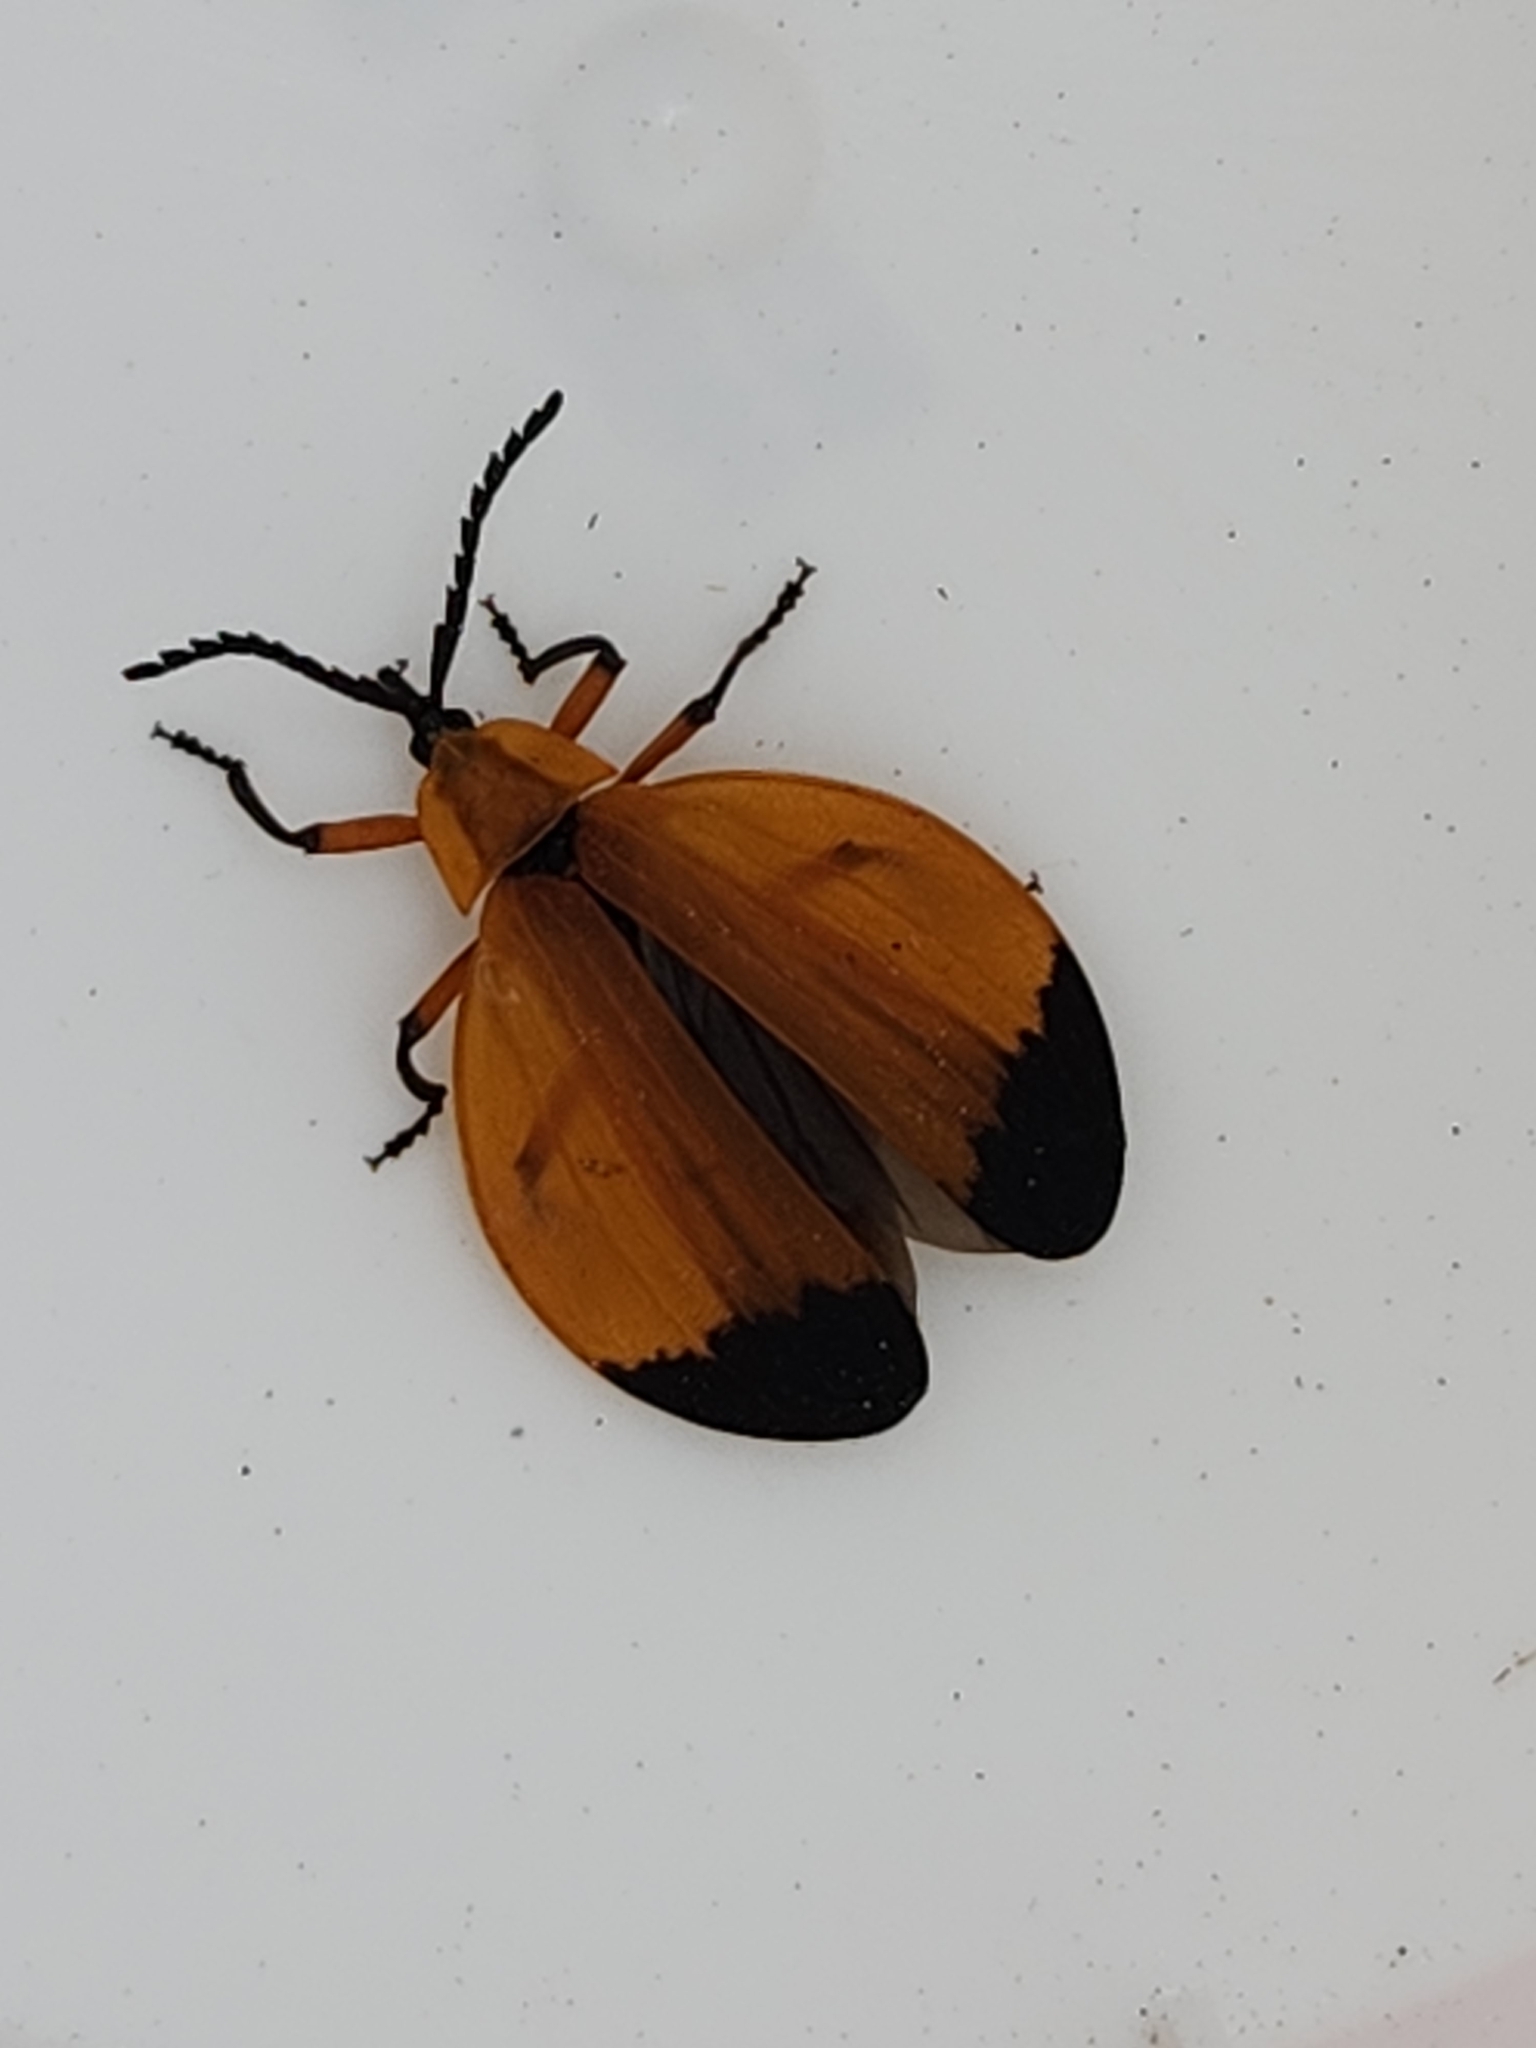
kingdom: Animalia
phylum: Arthropoda
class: Insecta
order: Coleoptera
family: Lycidae
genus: Lycus
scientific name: Lycus fernandezi
